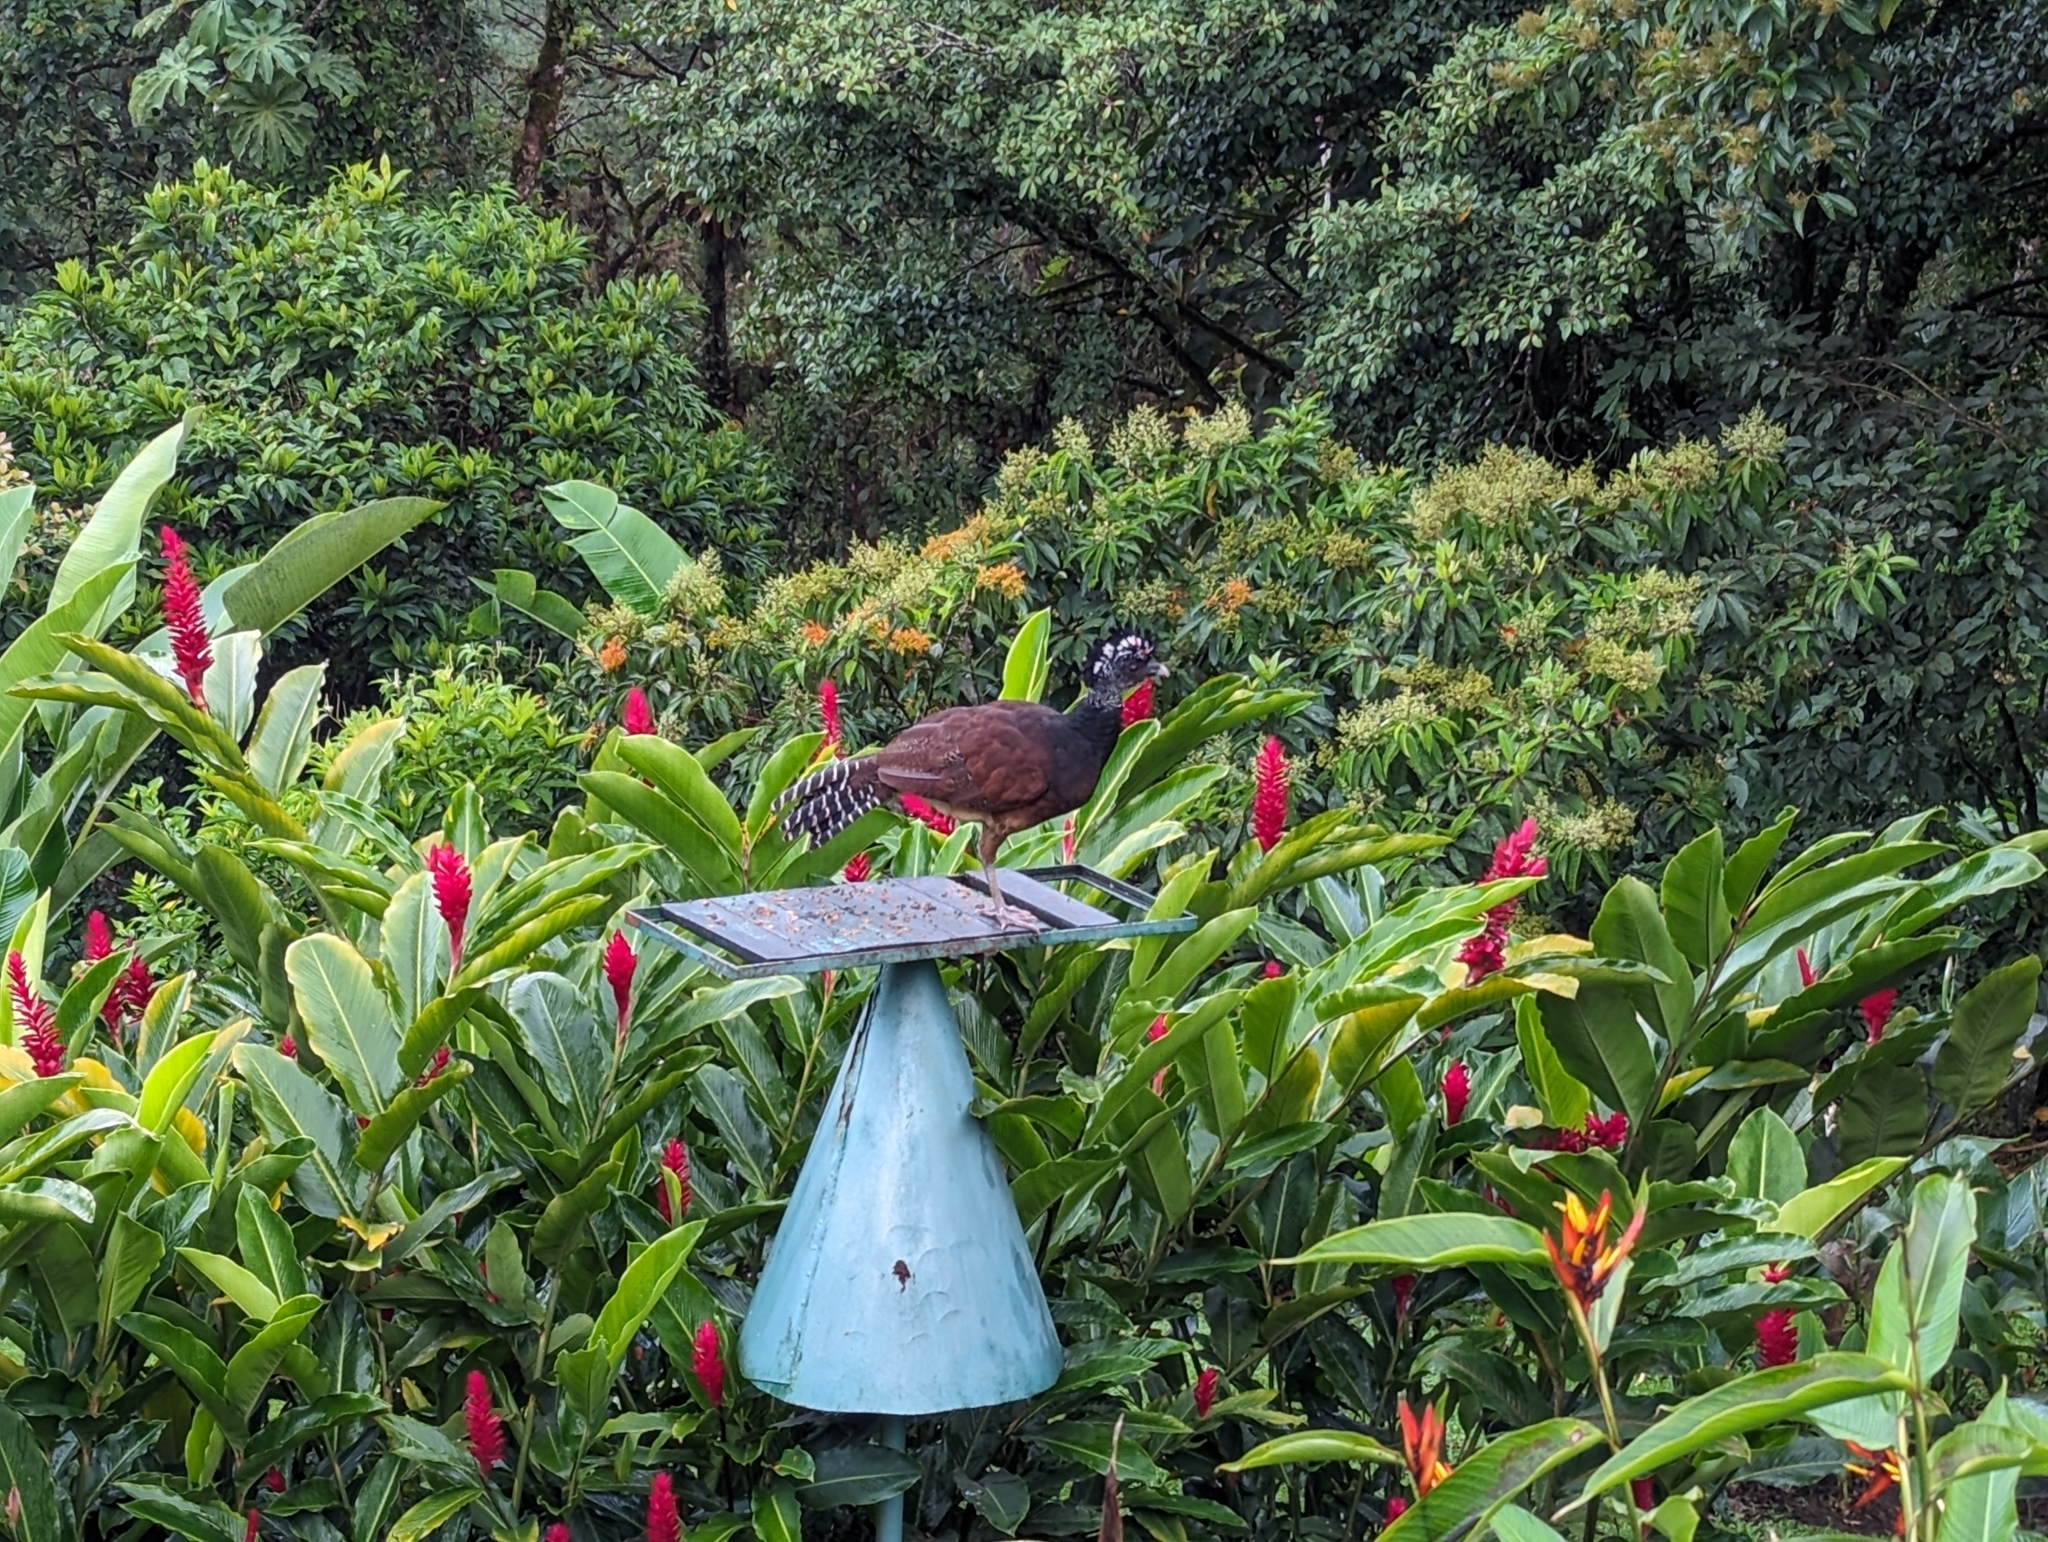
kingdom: Animalia
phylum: Chordata
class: Aves
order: Galliformes
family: Cracidae
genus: Crax
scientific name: Crax rubra
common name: Great curassow
